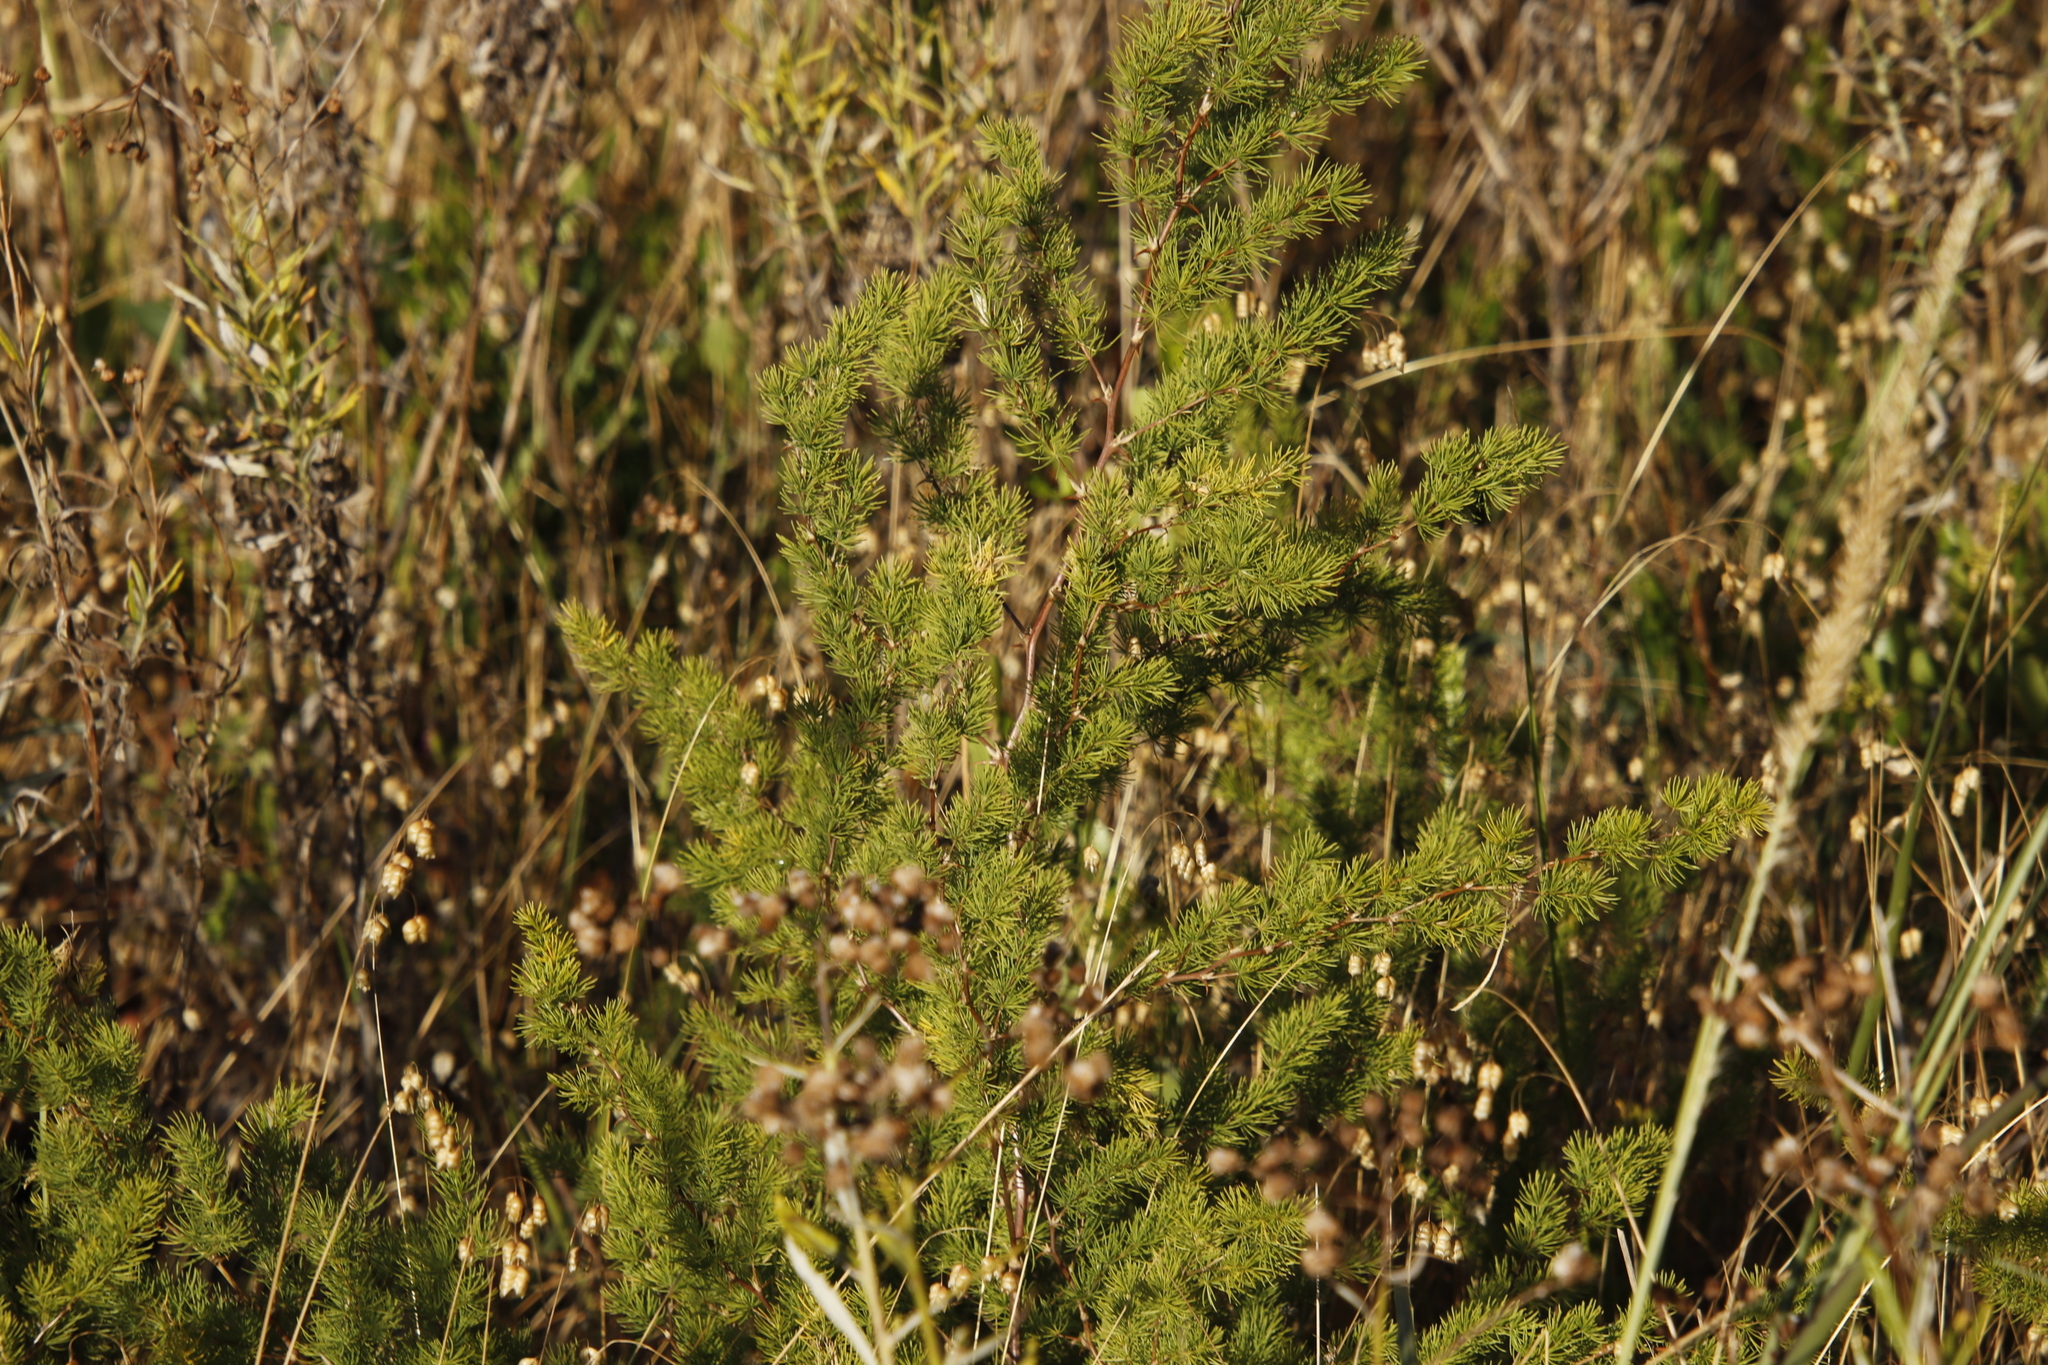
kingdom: Plantae
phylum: Tracheophyta
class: Liliopsida
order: Asparagales
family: Asparagaceae
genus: Asparagus
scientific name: Asparagus rubicundus
